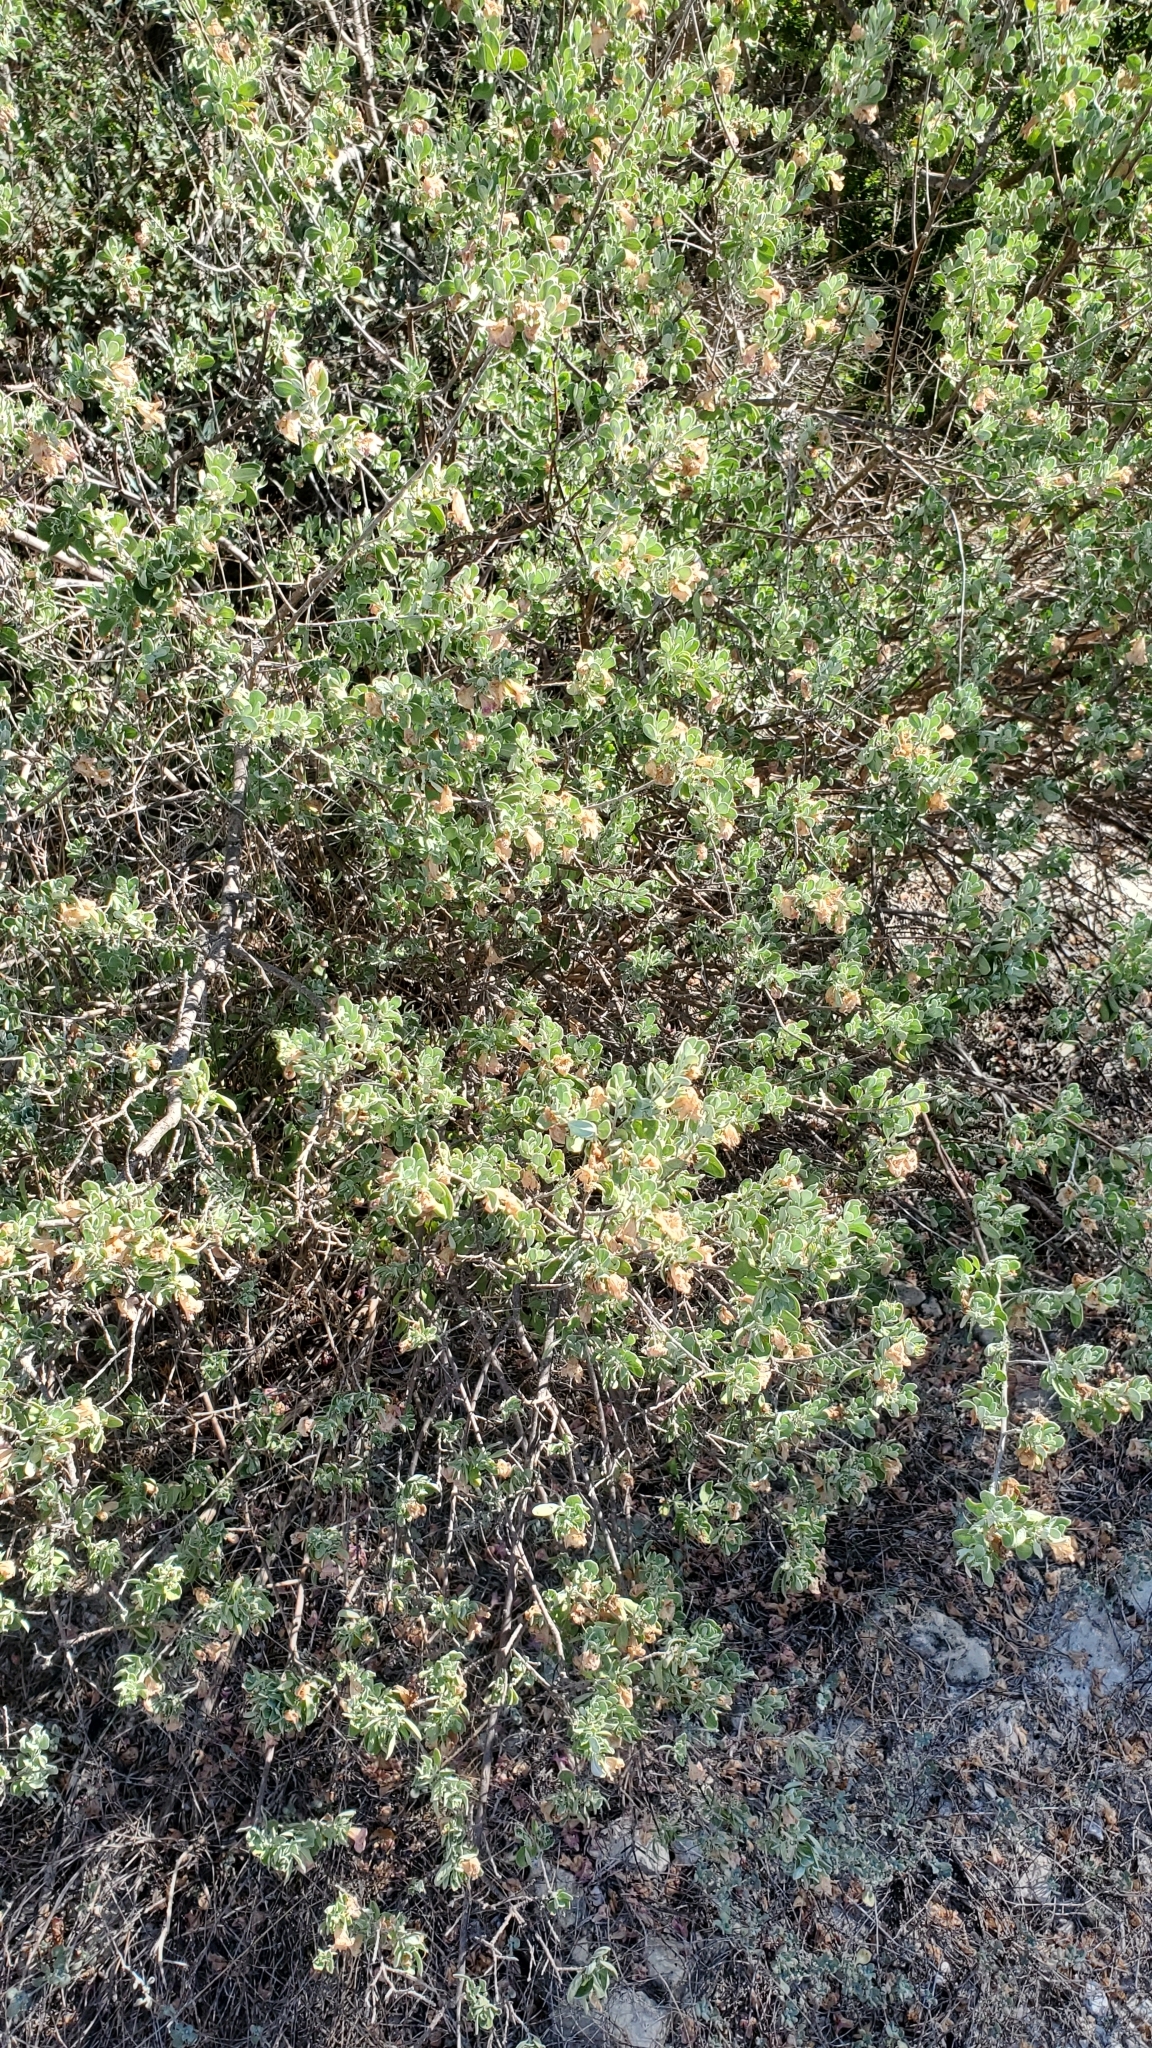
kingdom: Plantae
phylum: Tracheophyta
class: Magnoliopsida
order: Lamiales
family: Scrophulariaceae
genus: Leucophyllum
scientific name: Leucophyllum frutescens
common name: Texas silverleaf
